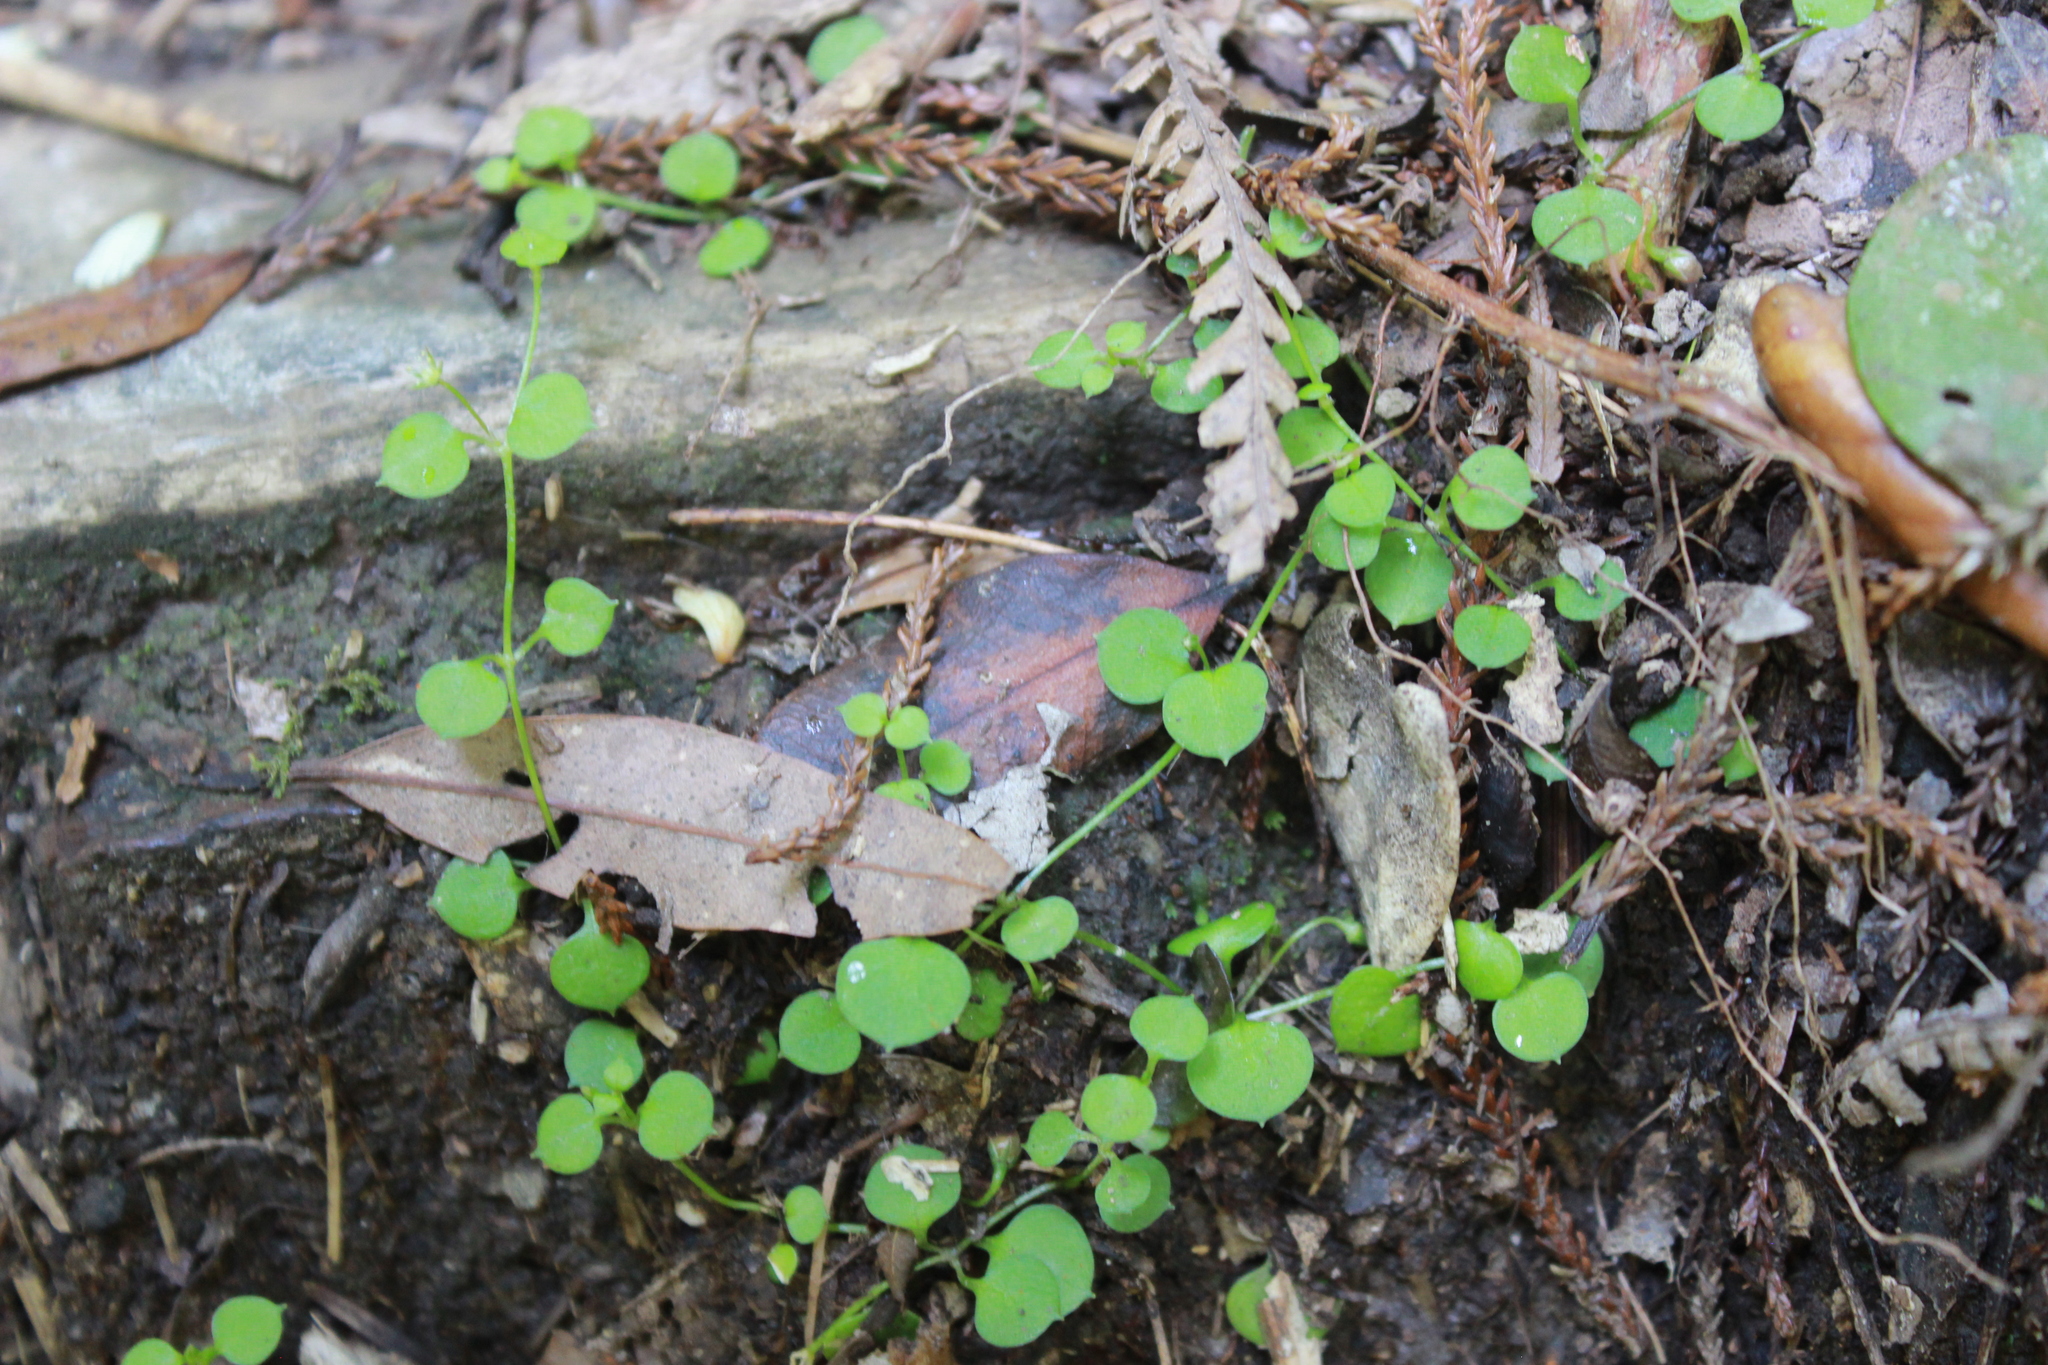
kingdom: Plantae
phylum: Tracheophyta
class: Magnoliopsida
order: Caryophyllales
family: Caryophyllaceae
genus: Stellaria
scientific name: Stellaria parviflora
